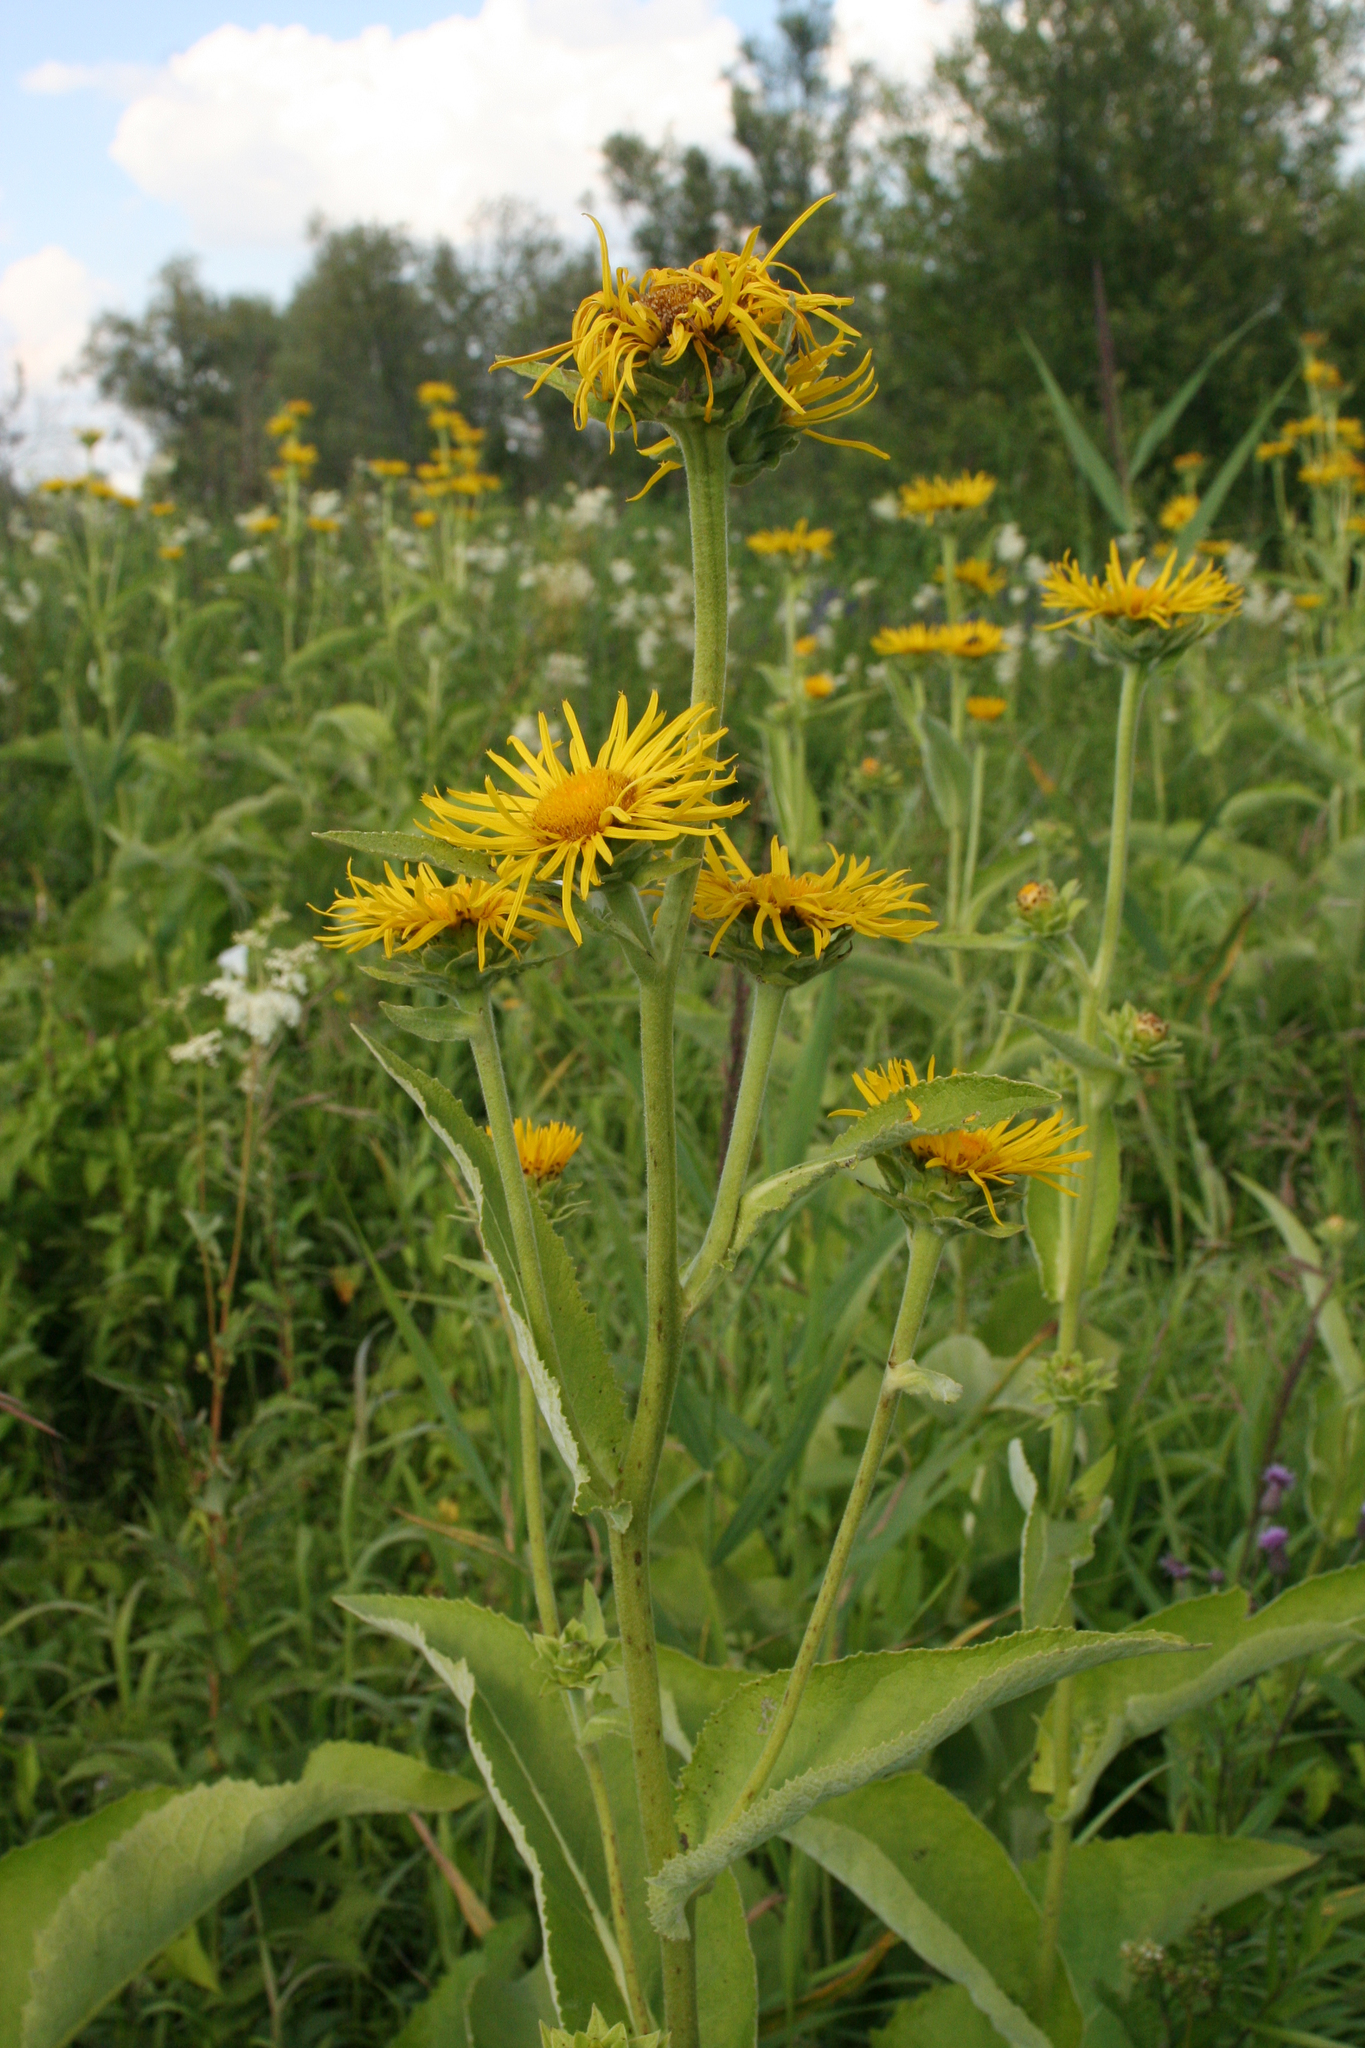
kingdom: Plantae
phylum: Tracheophyta
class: Magnoliopsida
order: Asterales
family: Asteraceae
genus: Inula
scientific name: Inula helenium
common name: Elecampane
